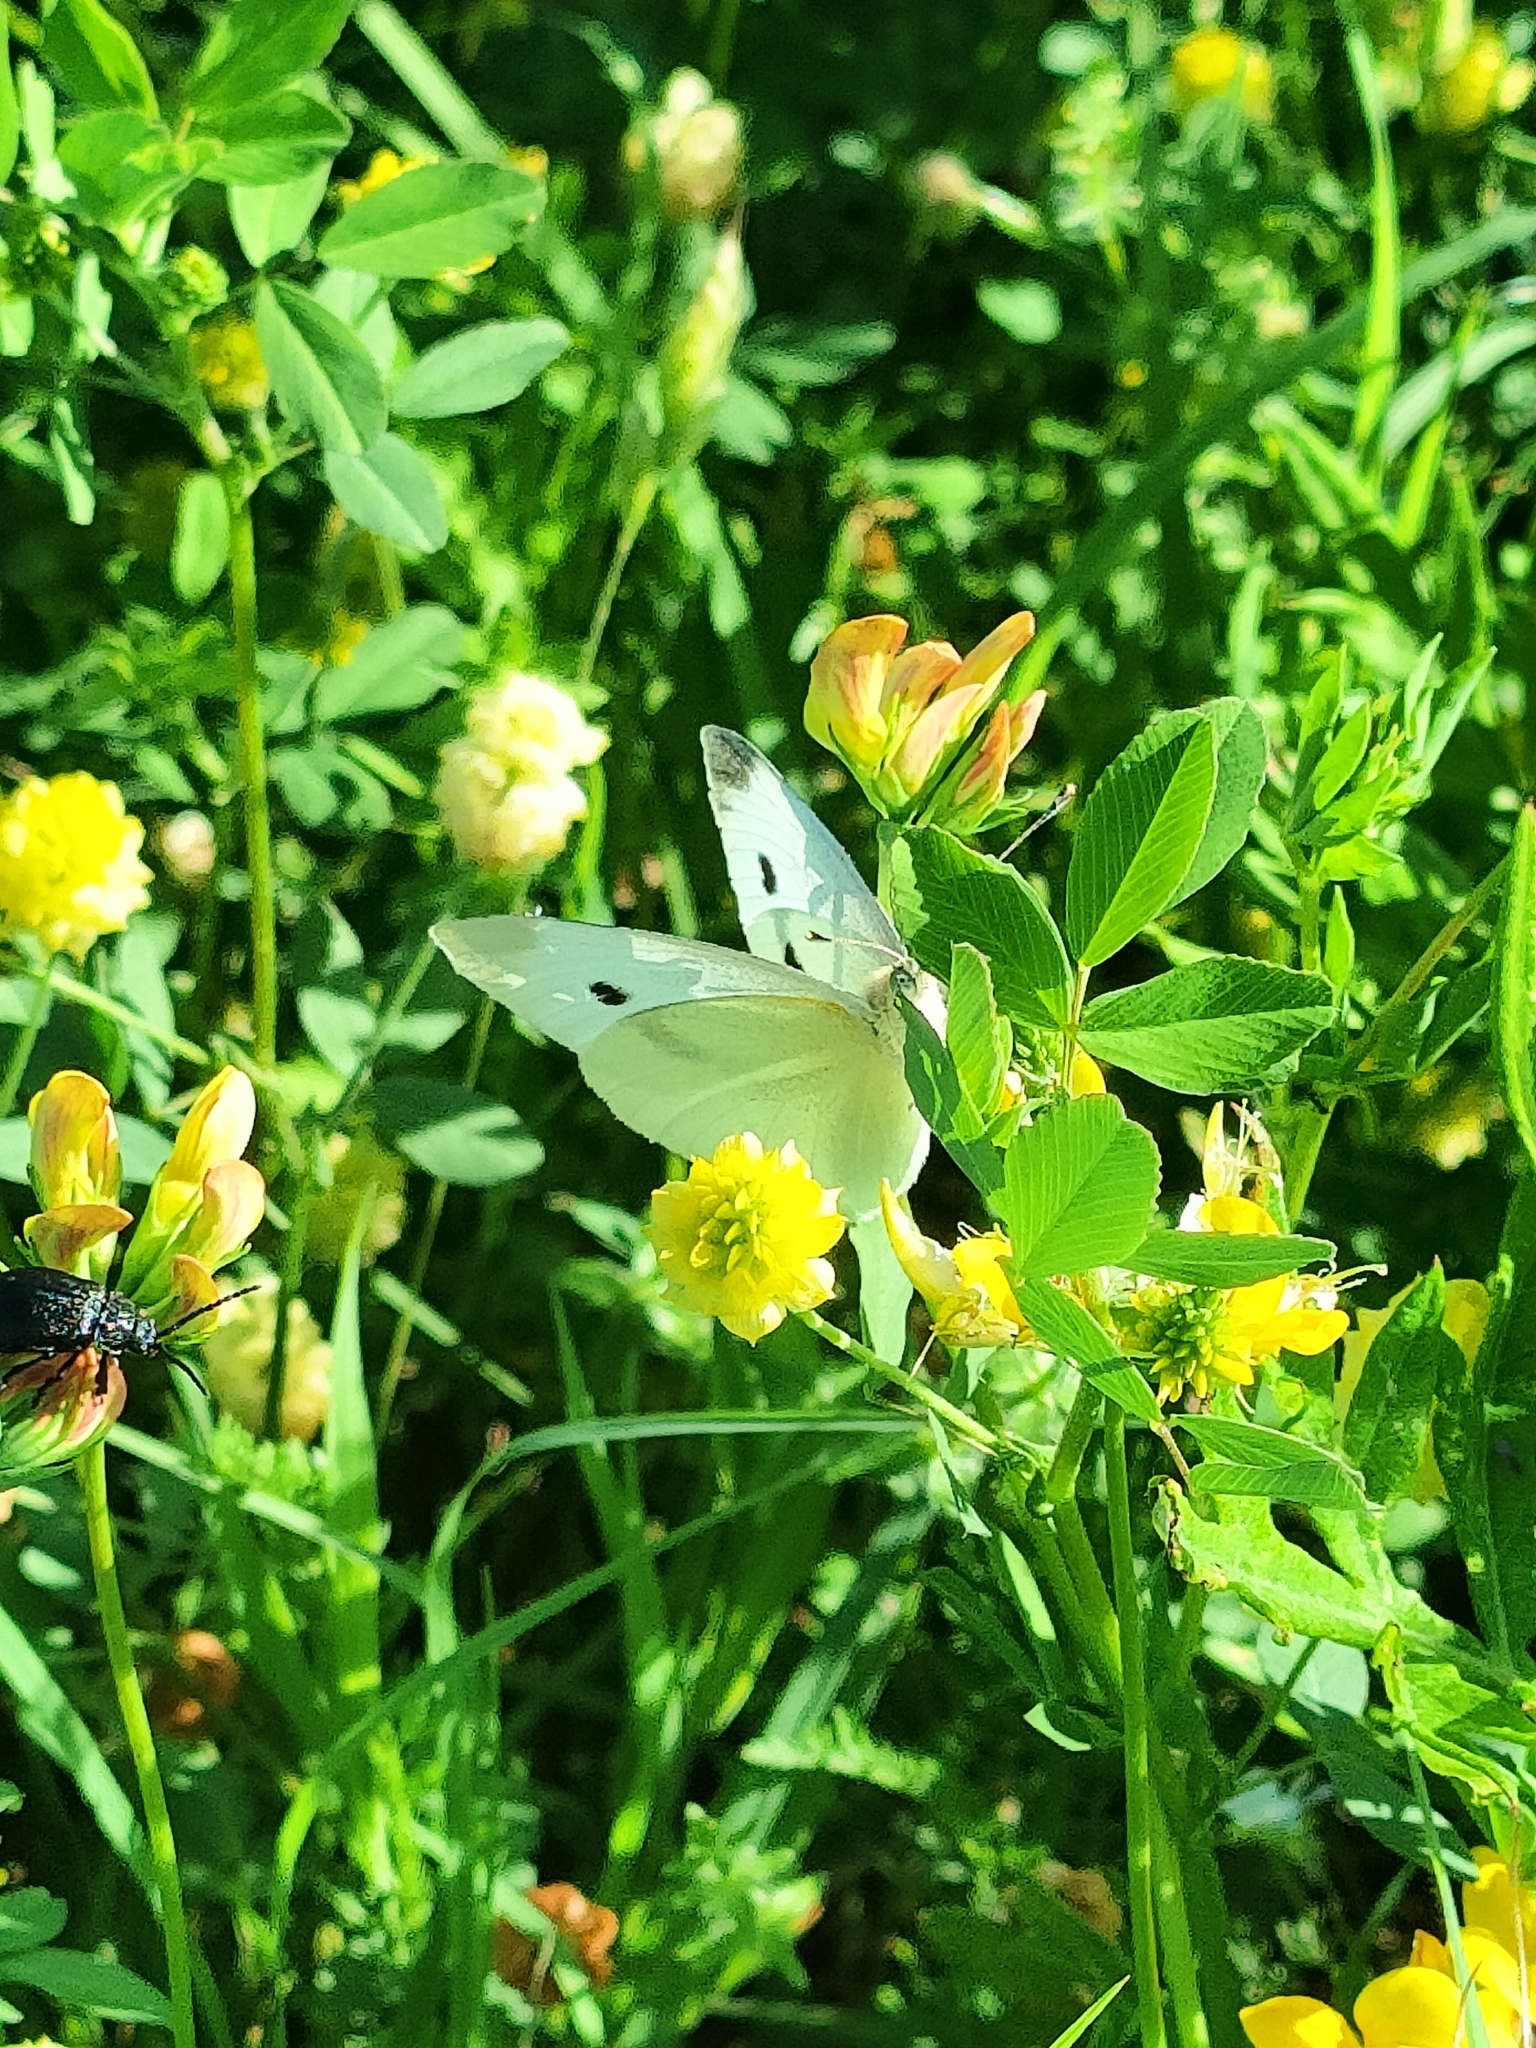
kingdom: Animalia
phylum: Arthropoda
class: Insecta
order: Lepidoptera
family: Pieridae
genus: Pieris
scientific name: Pieris mannii
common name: Southern small white
